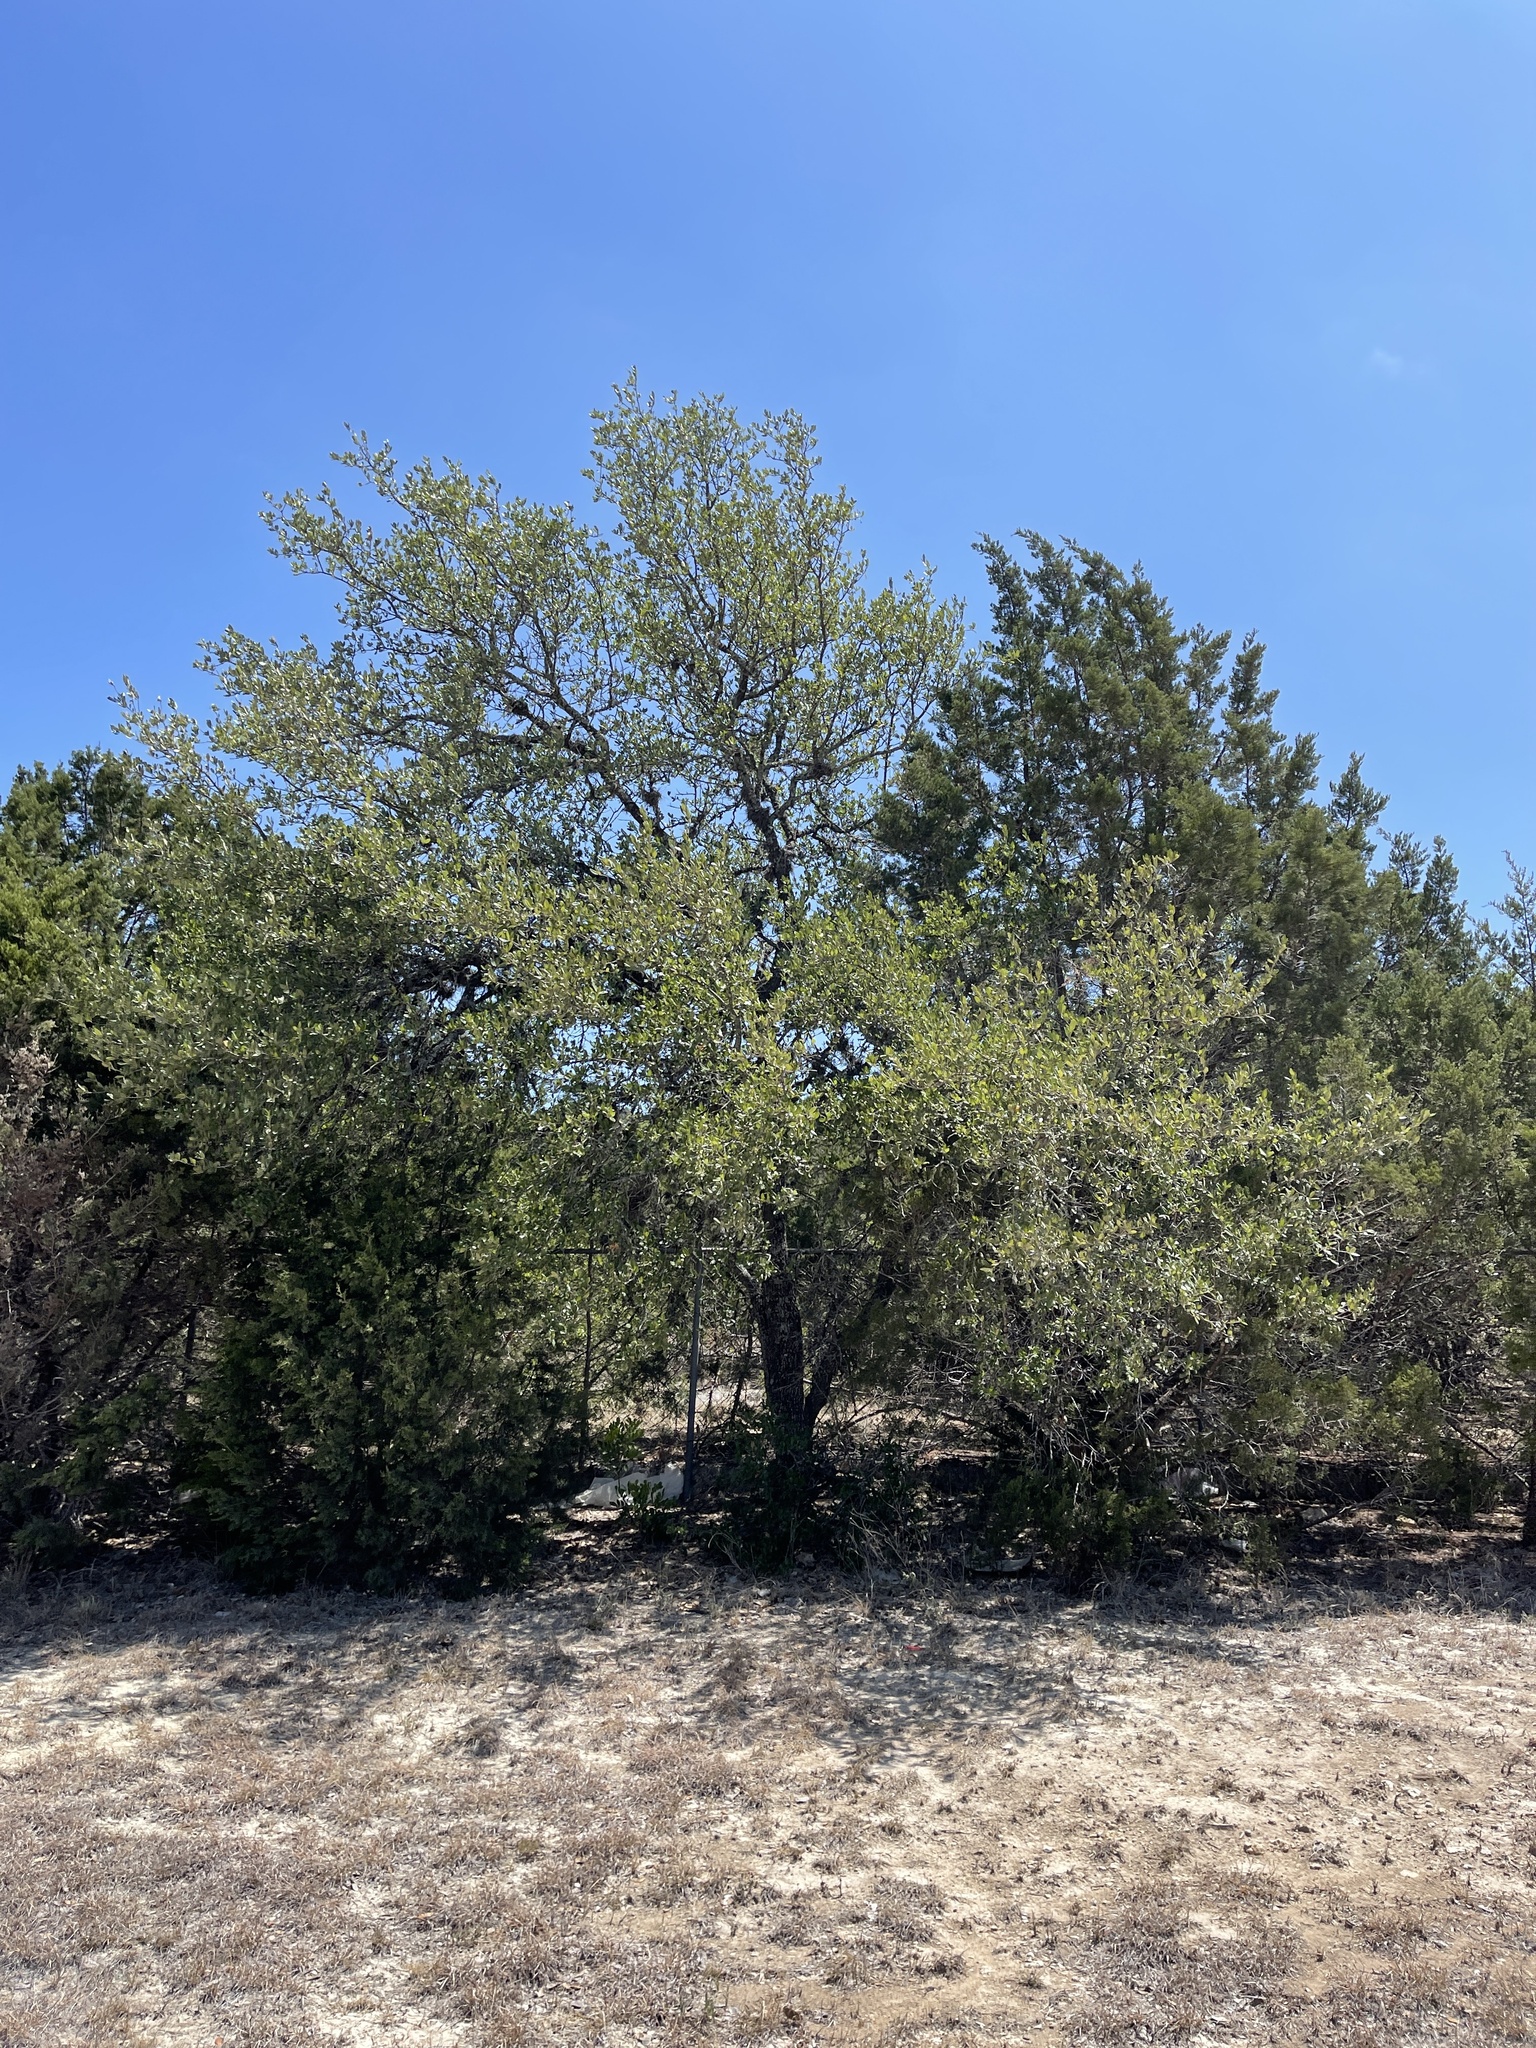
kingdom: Plantae
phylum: Tracheophyta
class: Magnoliopsida
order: Fagales
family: Fagaceae
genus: Quercus
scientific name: Quercus fusiformis
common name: Texas live oak
